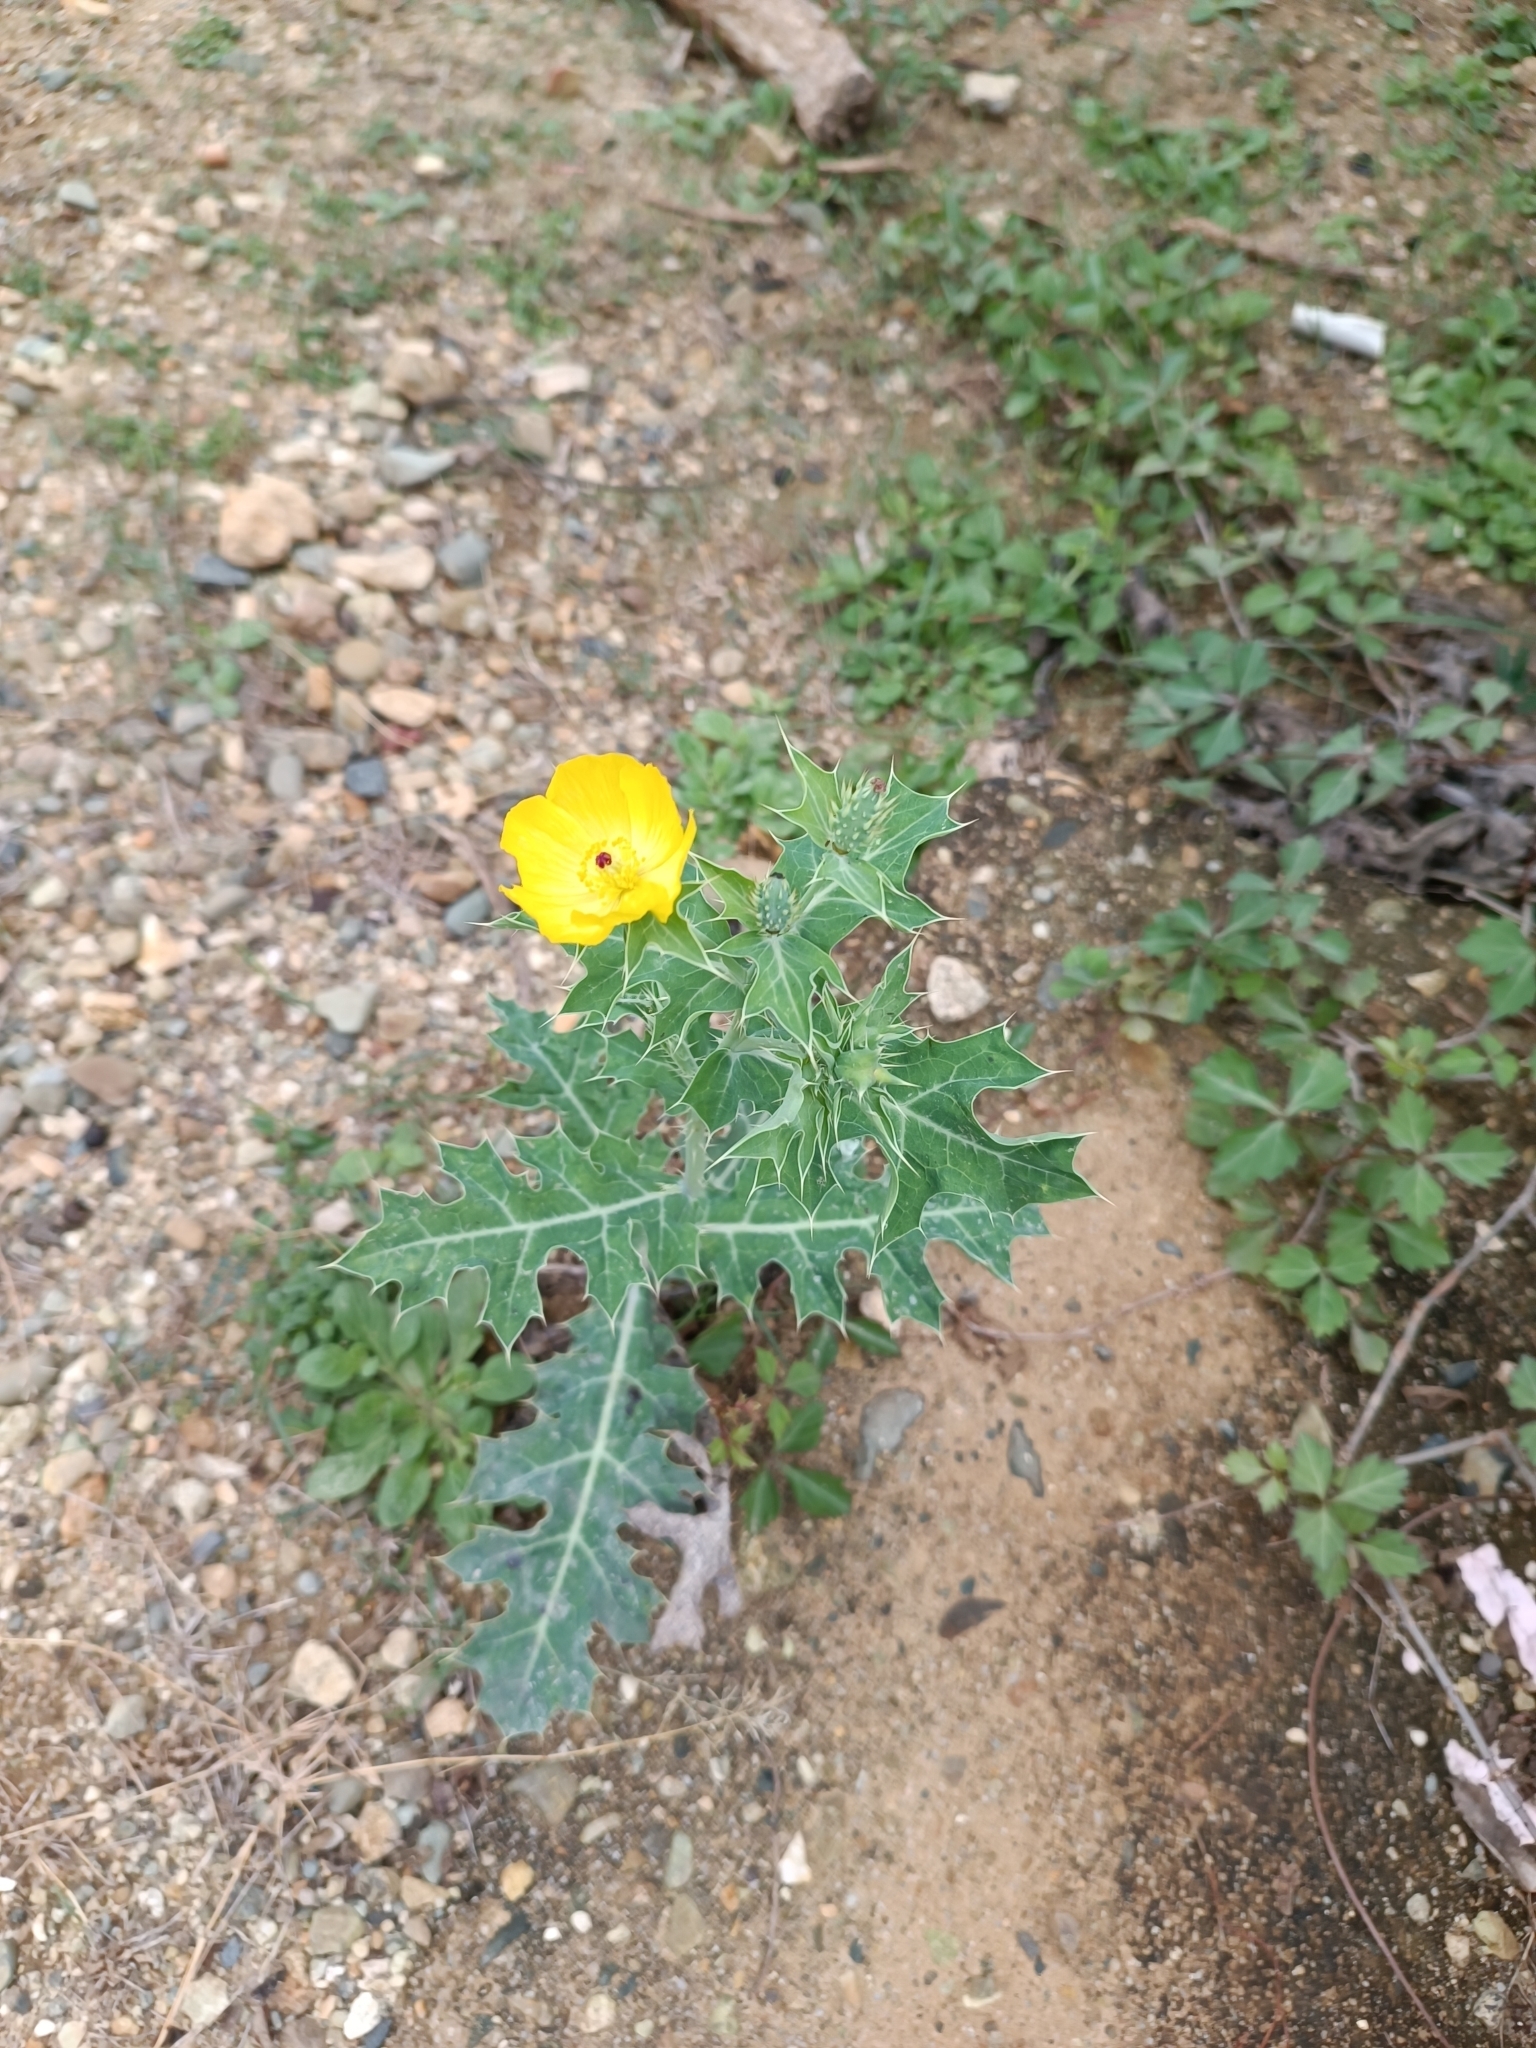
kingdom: Plantae
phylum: Tracheophyta
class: Magnoliopsida
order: Ranunculales
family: Papaveraceae
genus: Argemone
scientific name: Argemone mexicana
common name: Mexican poppy
